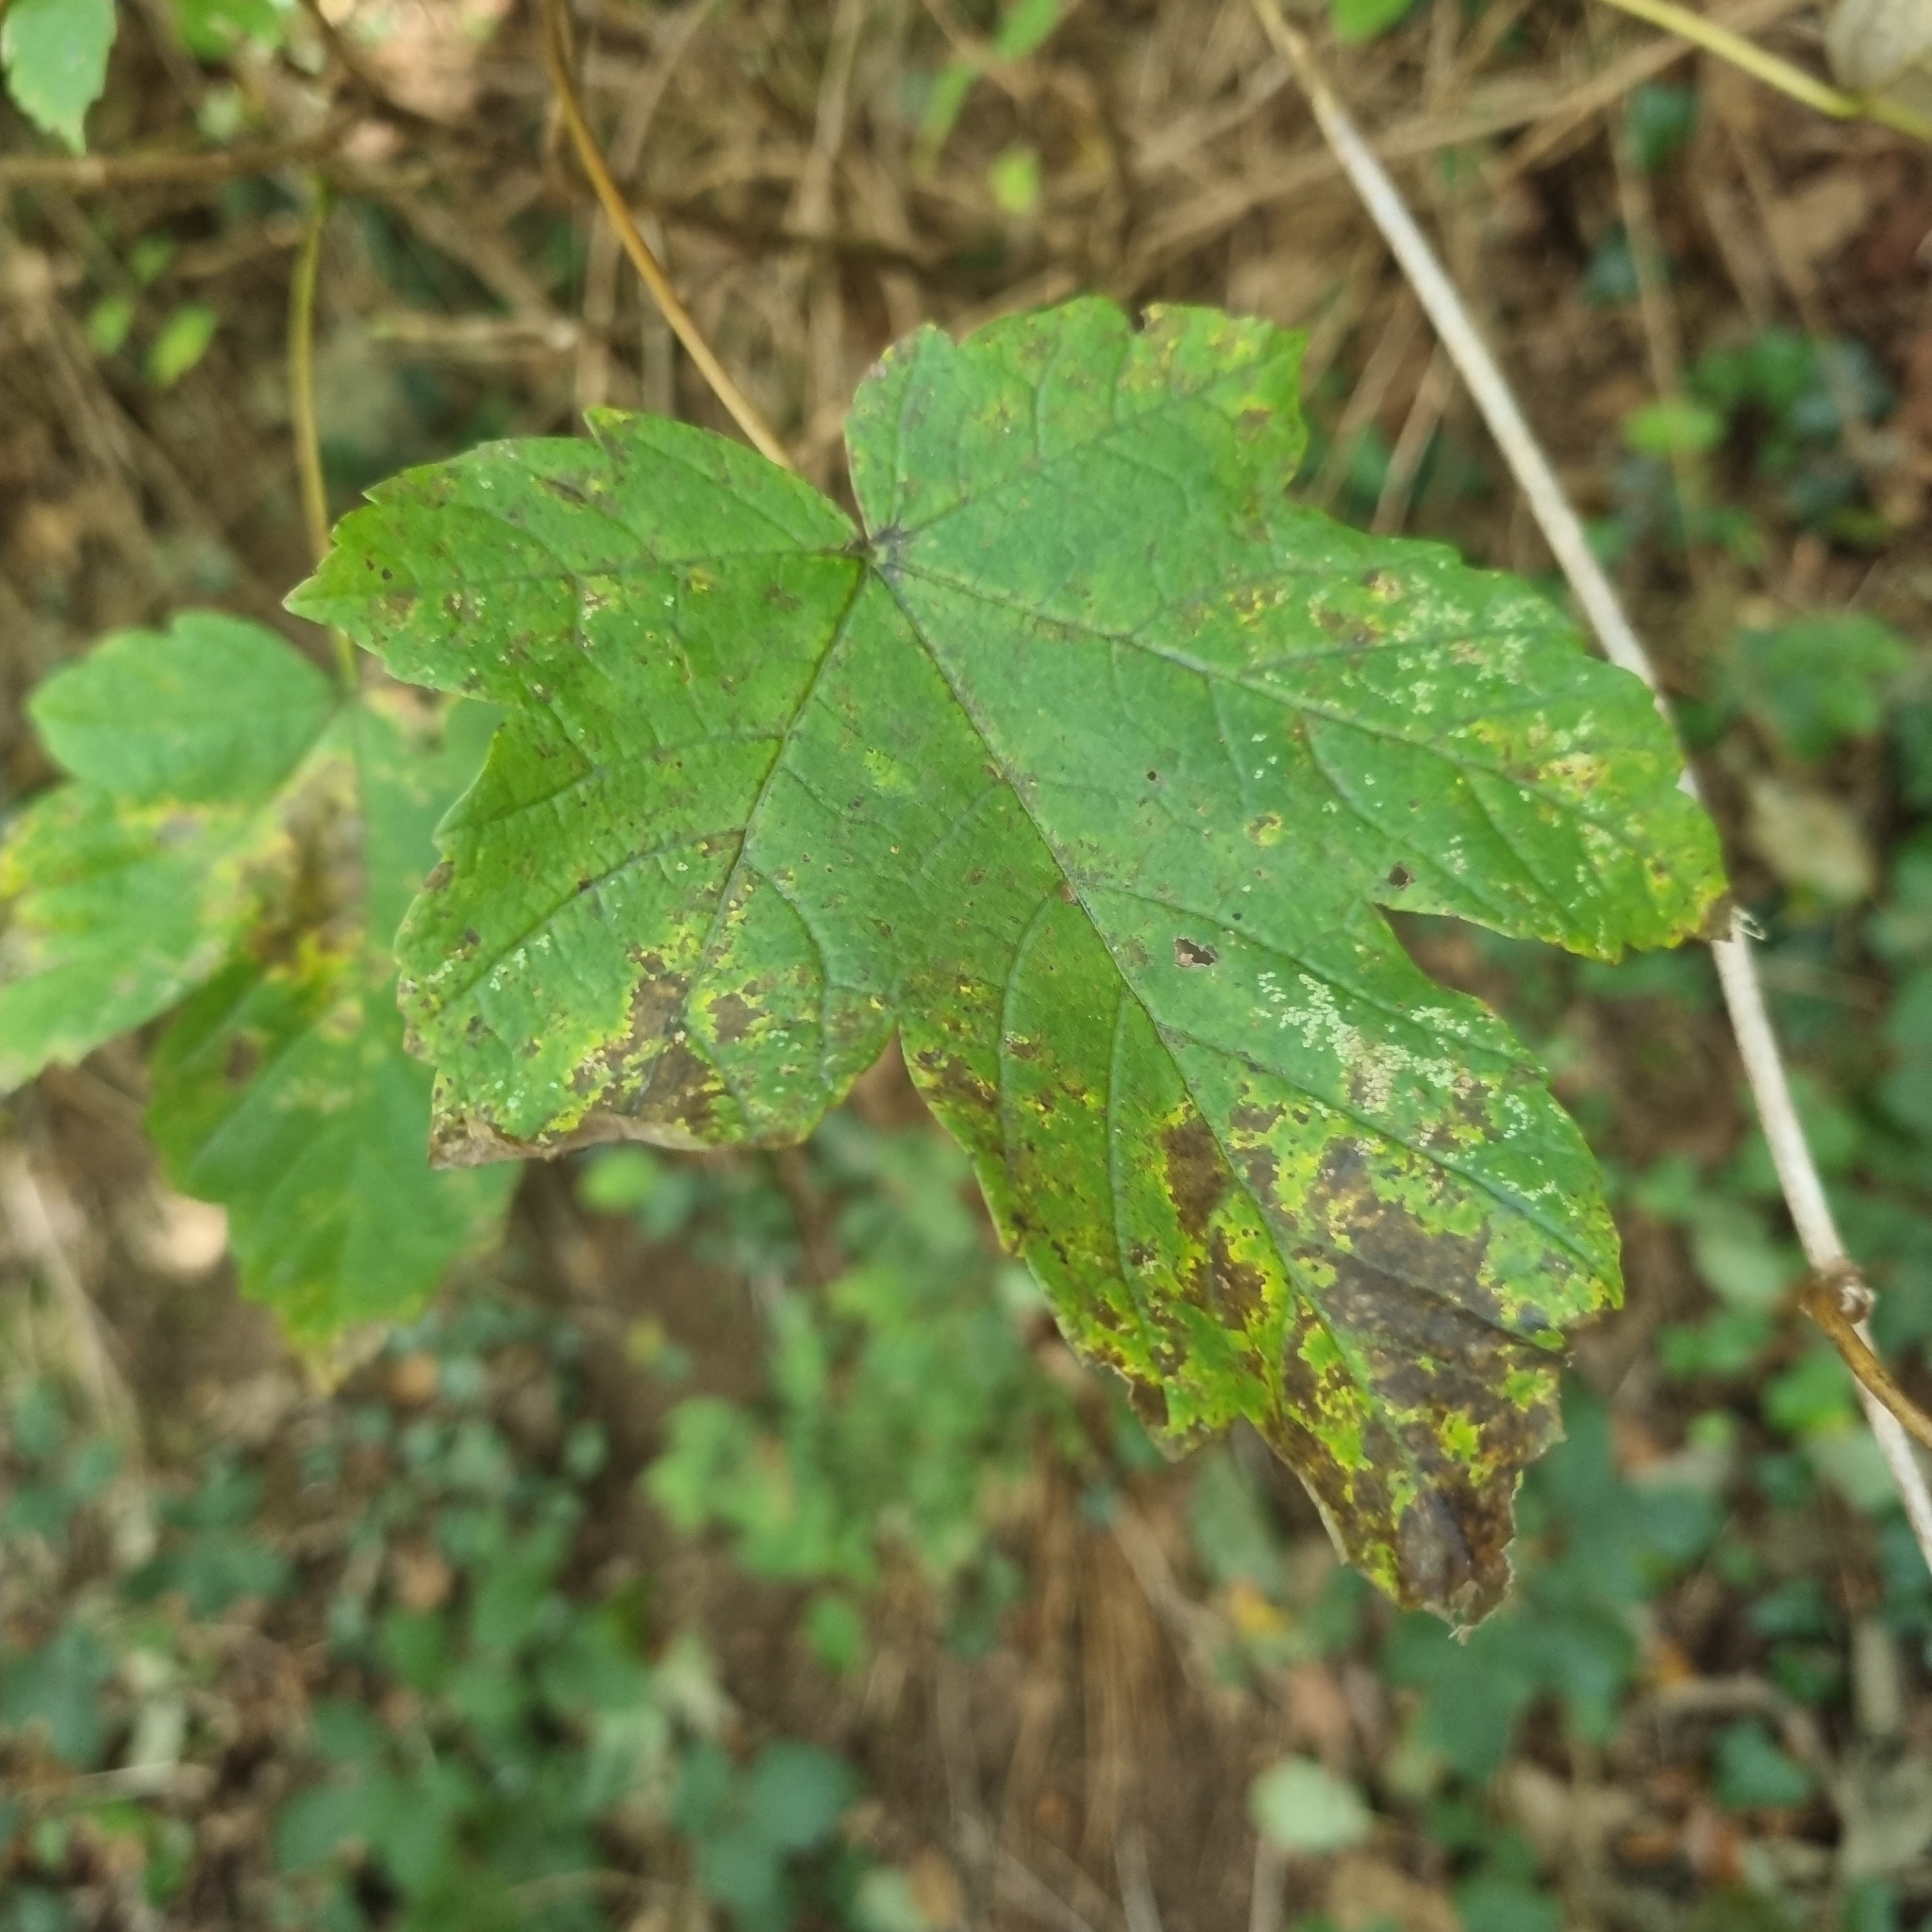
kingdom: Plantae
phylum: Tracheophyta
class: Magnoliopsida
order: Sapindales
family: Sapindaceae
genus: Acer
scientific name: Acer pseudoplatanus
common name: Sycamore
